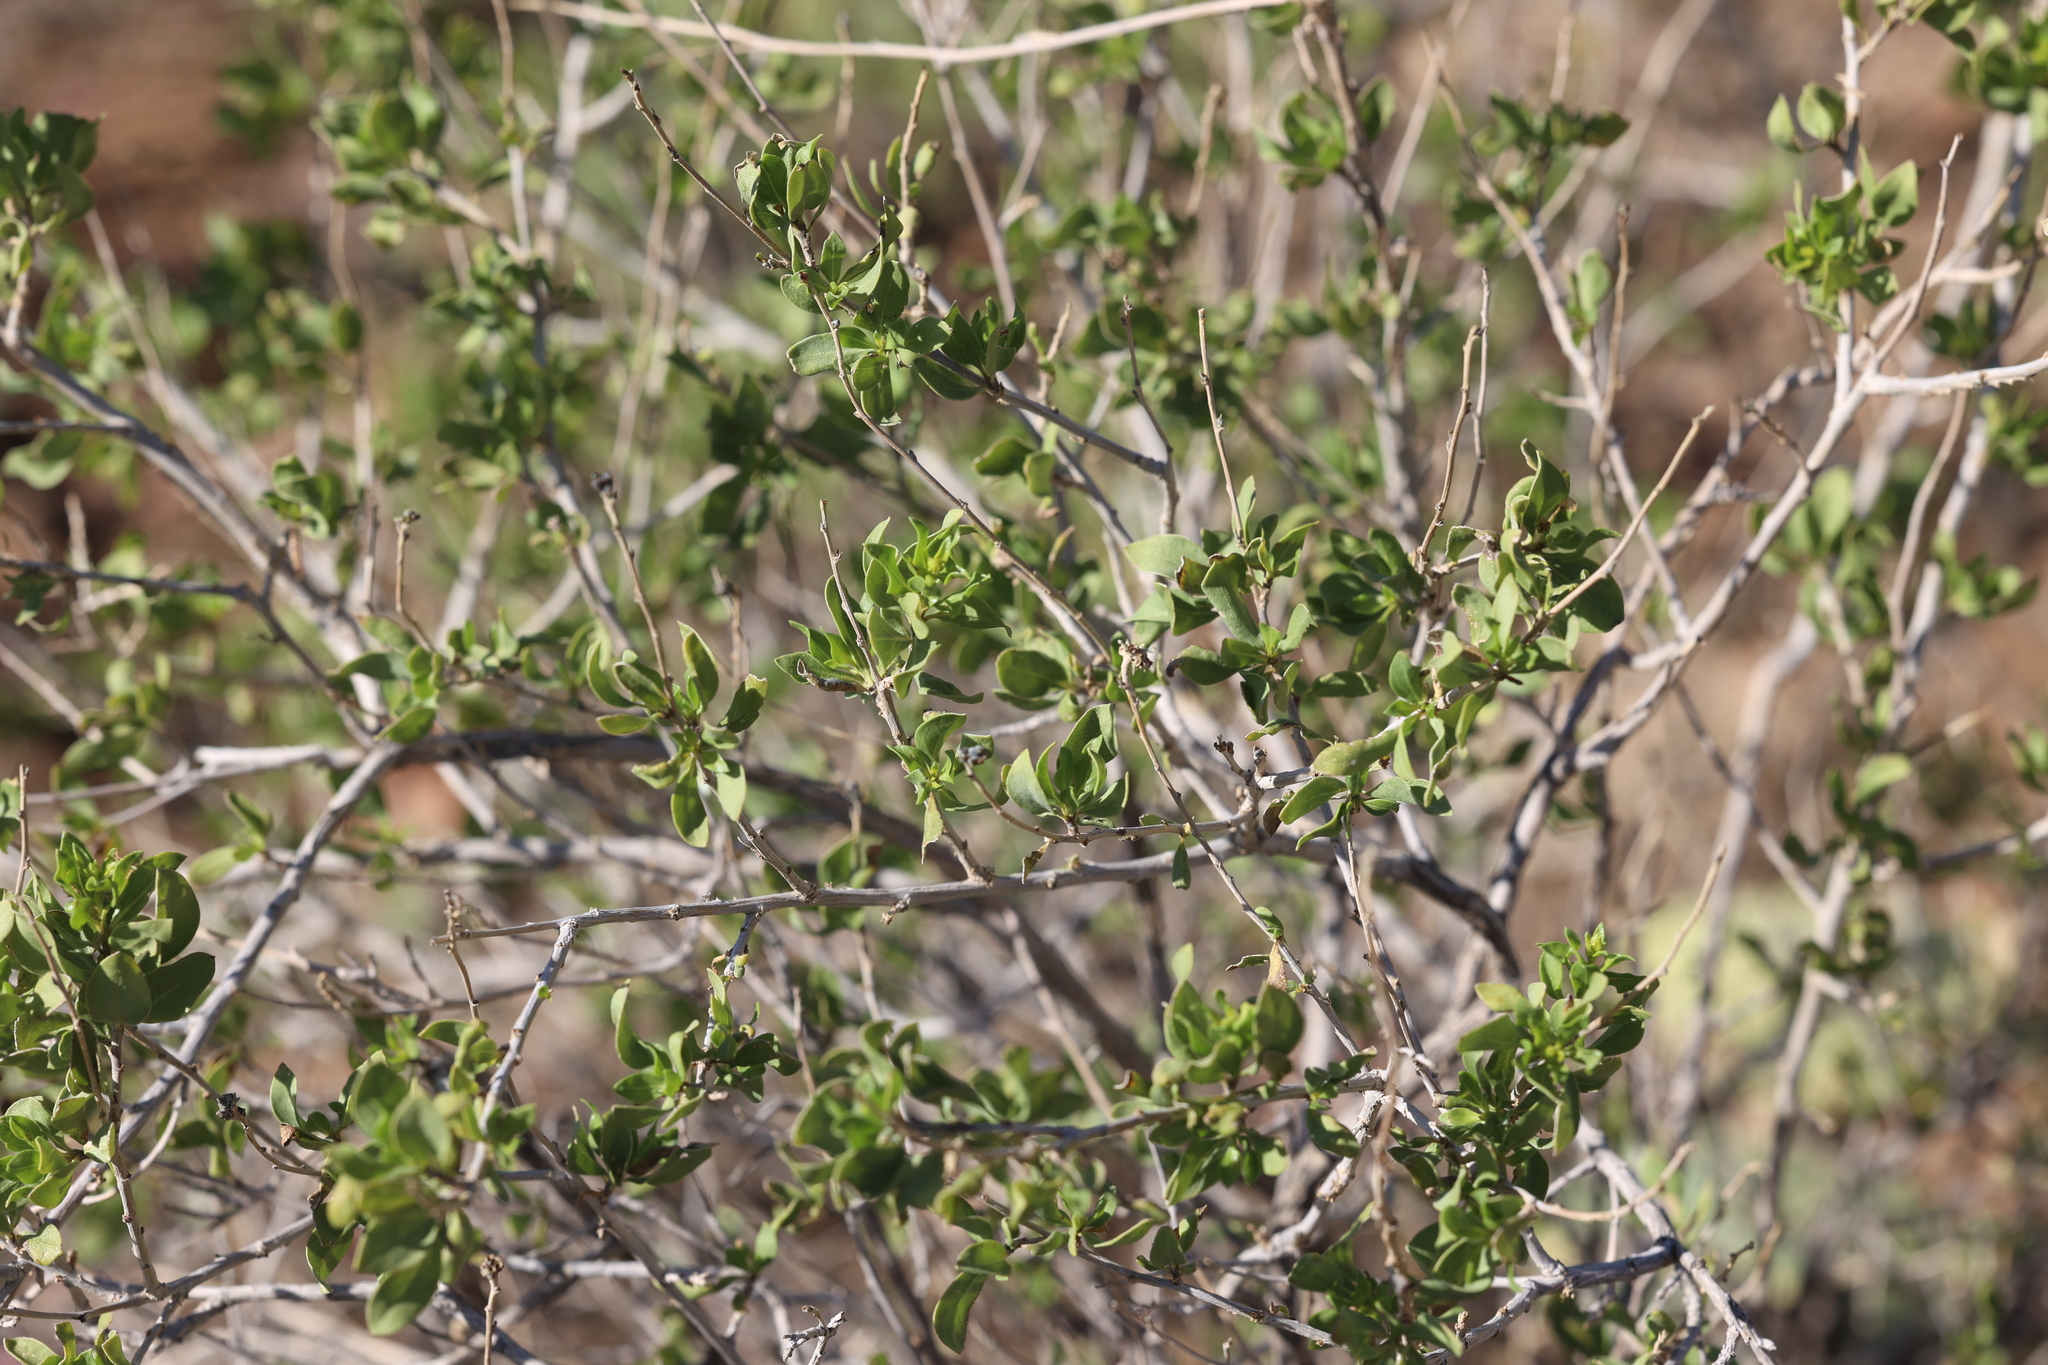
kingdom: Plantae
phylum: Tracheophyta
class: Magnoliopsida
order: Asterales
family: Asteraceae
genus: Flourensia
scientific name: Flourensia cernua
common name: Varnishbush
